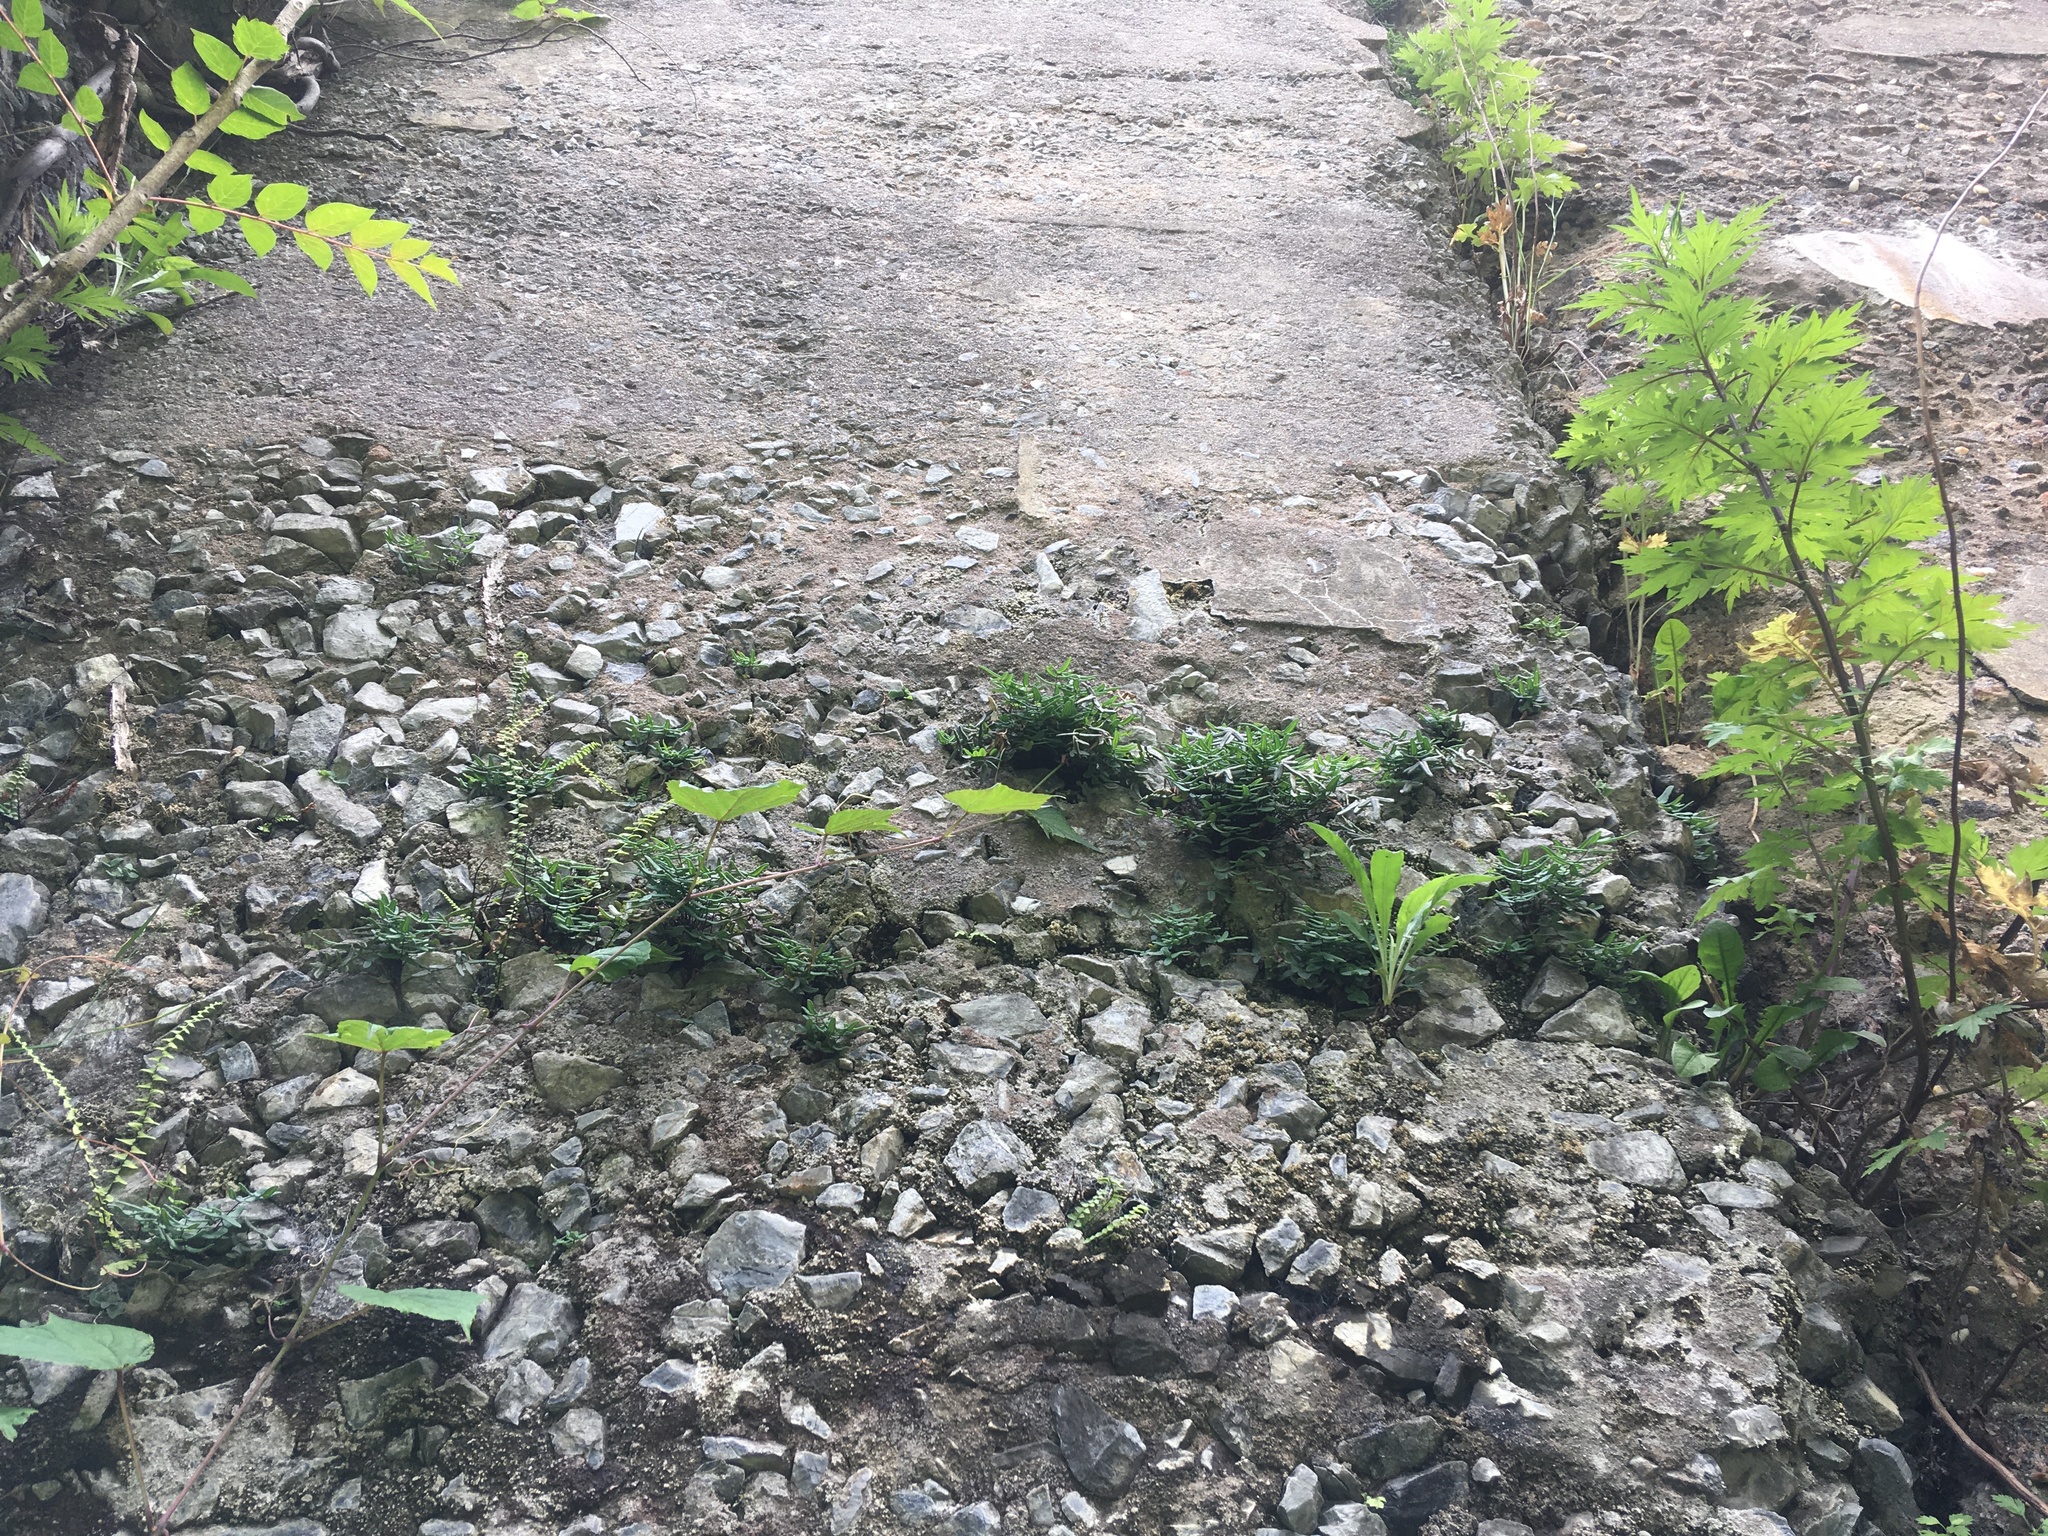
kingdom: Plantae
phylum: Tracheophyta
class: Polypodiopsida
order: Polypodiales
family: Pteridaceae
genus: Pellaea
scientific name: Pellaea glabella
